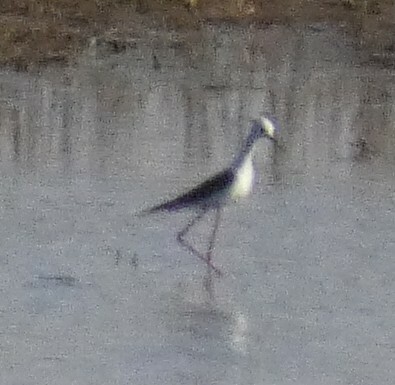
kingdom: Animalia
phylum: Chordata
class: Aves
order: Charadriiformes
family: Recurvirostridae
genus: Himantopus
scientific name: Himantopus himantopus
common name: Black-winged stilt
